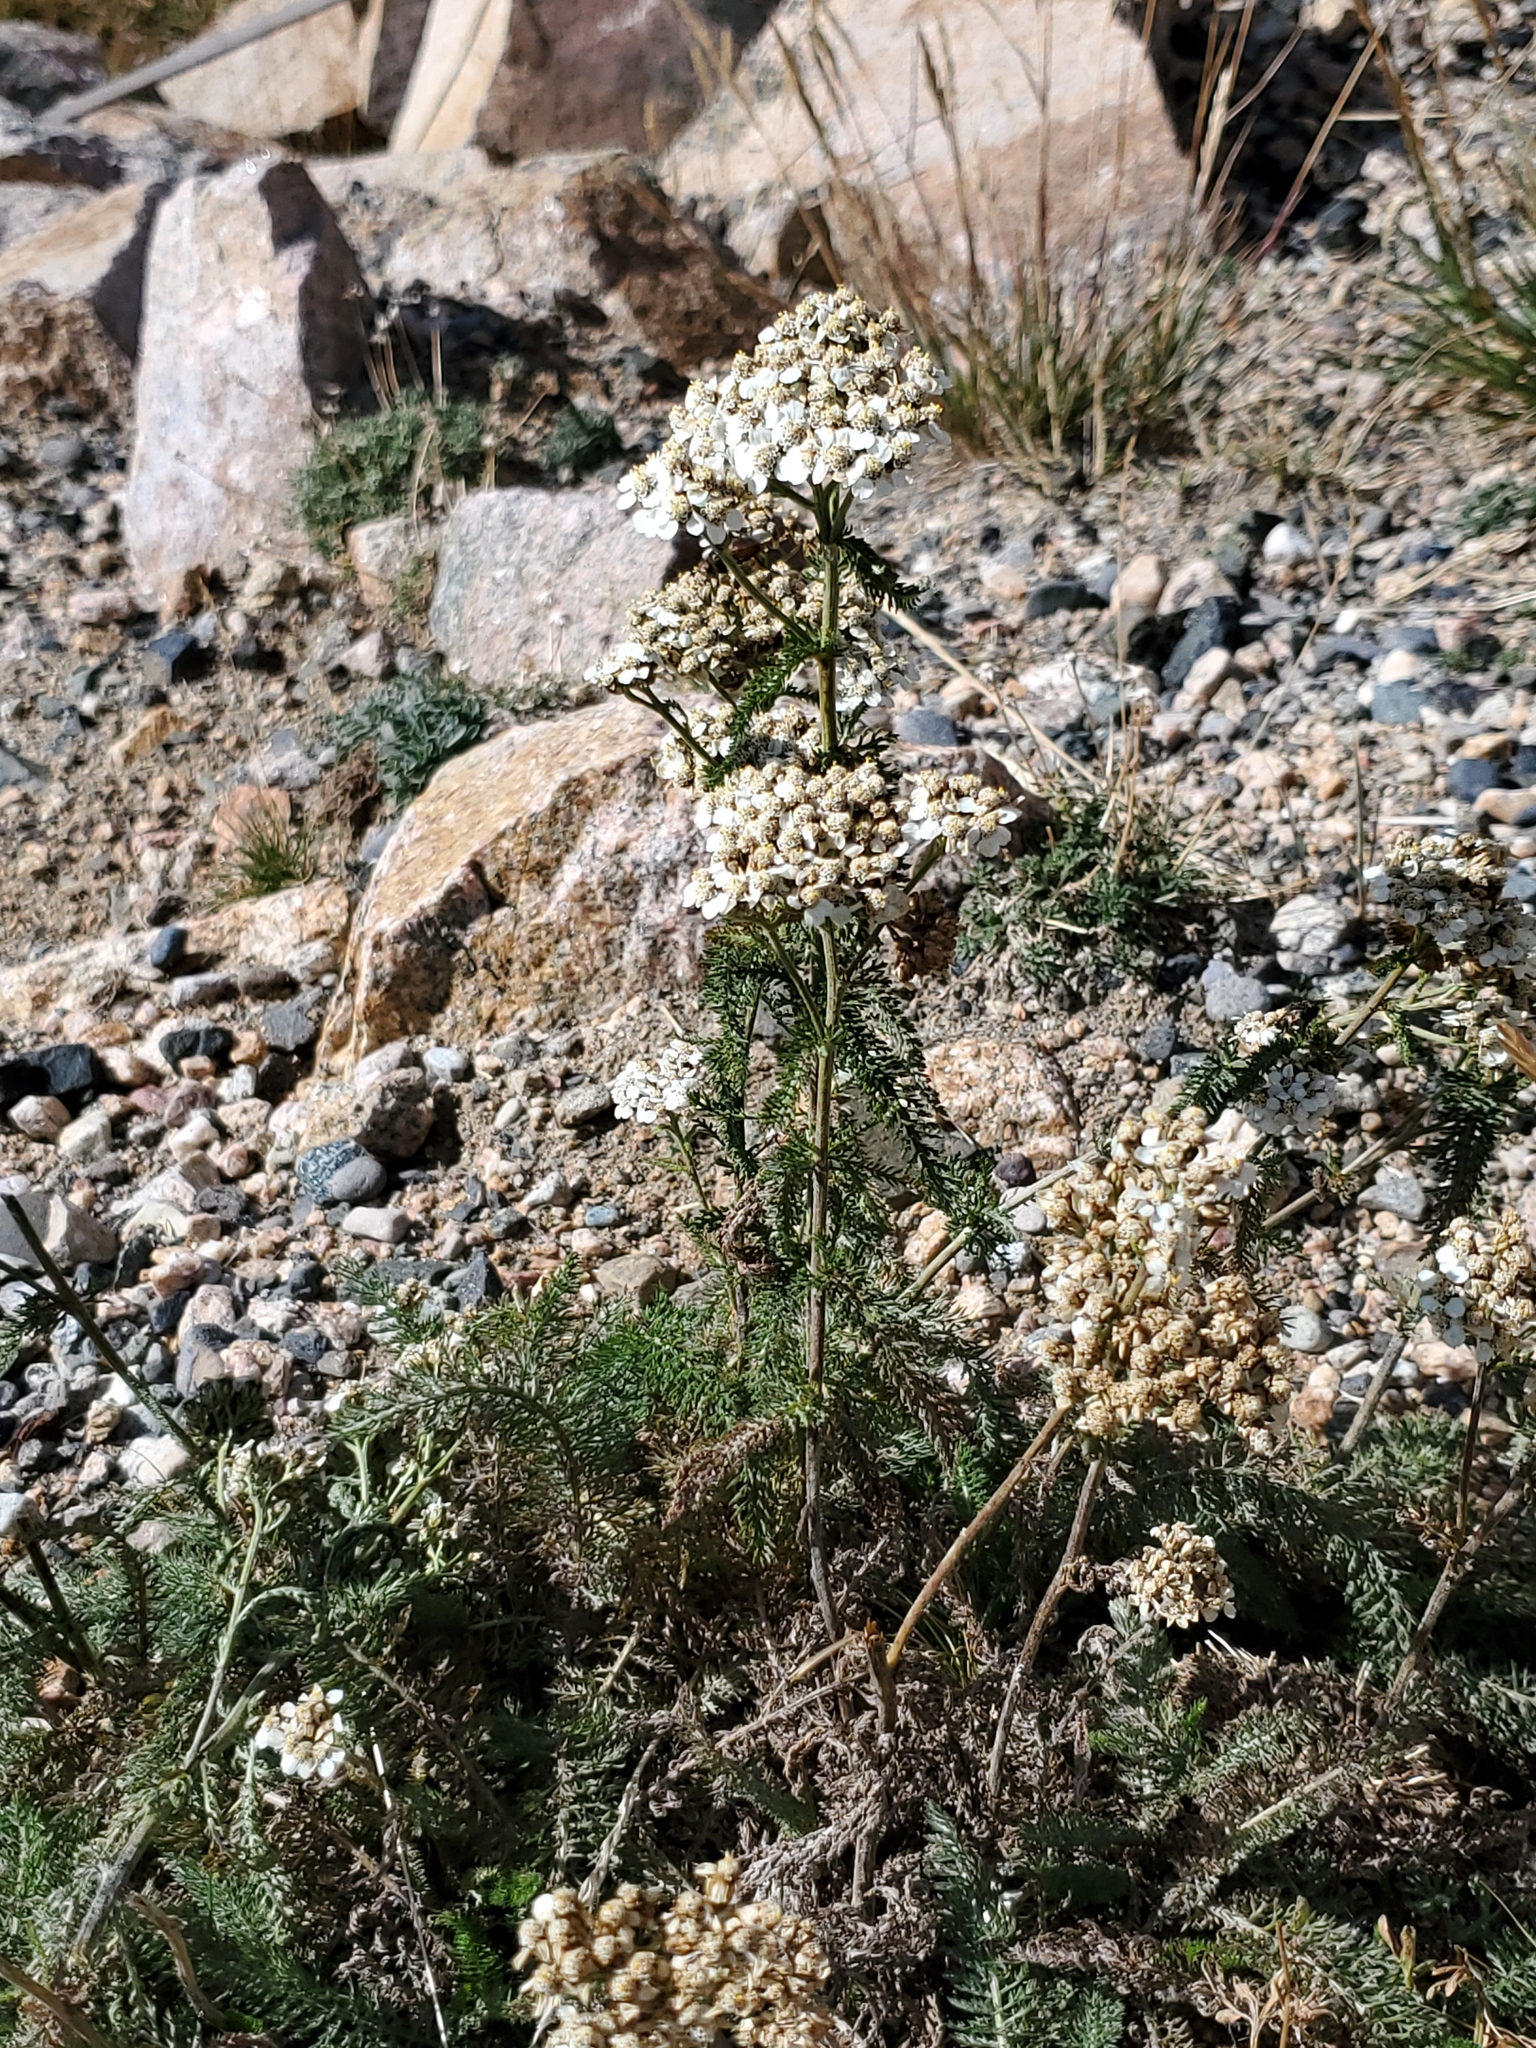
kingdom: Plantae
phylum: Tracheophyta
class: Magnoliopsida
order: Asterales
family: Asteraceae
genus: Achillea
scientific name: Achillea millefolium
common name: Yarrow
